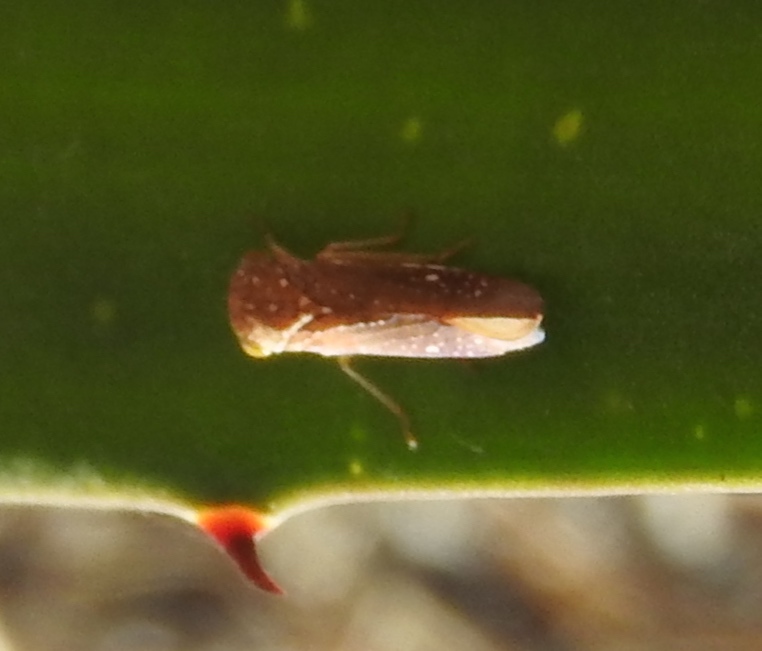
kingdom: Animalia
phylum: Arthropoda
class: Insecta
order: Hemiptera
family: Cicadellidae
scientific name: Cicadellidae
